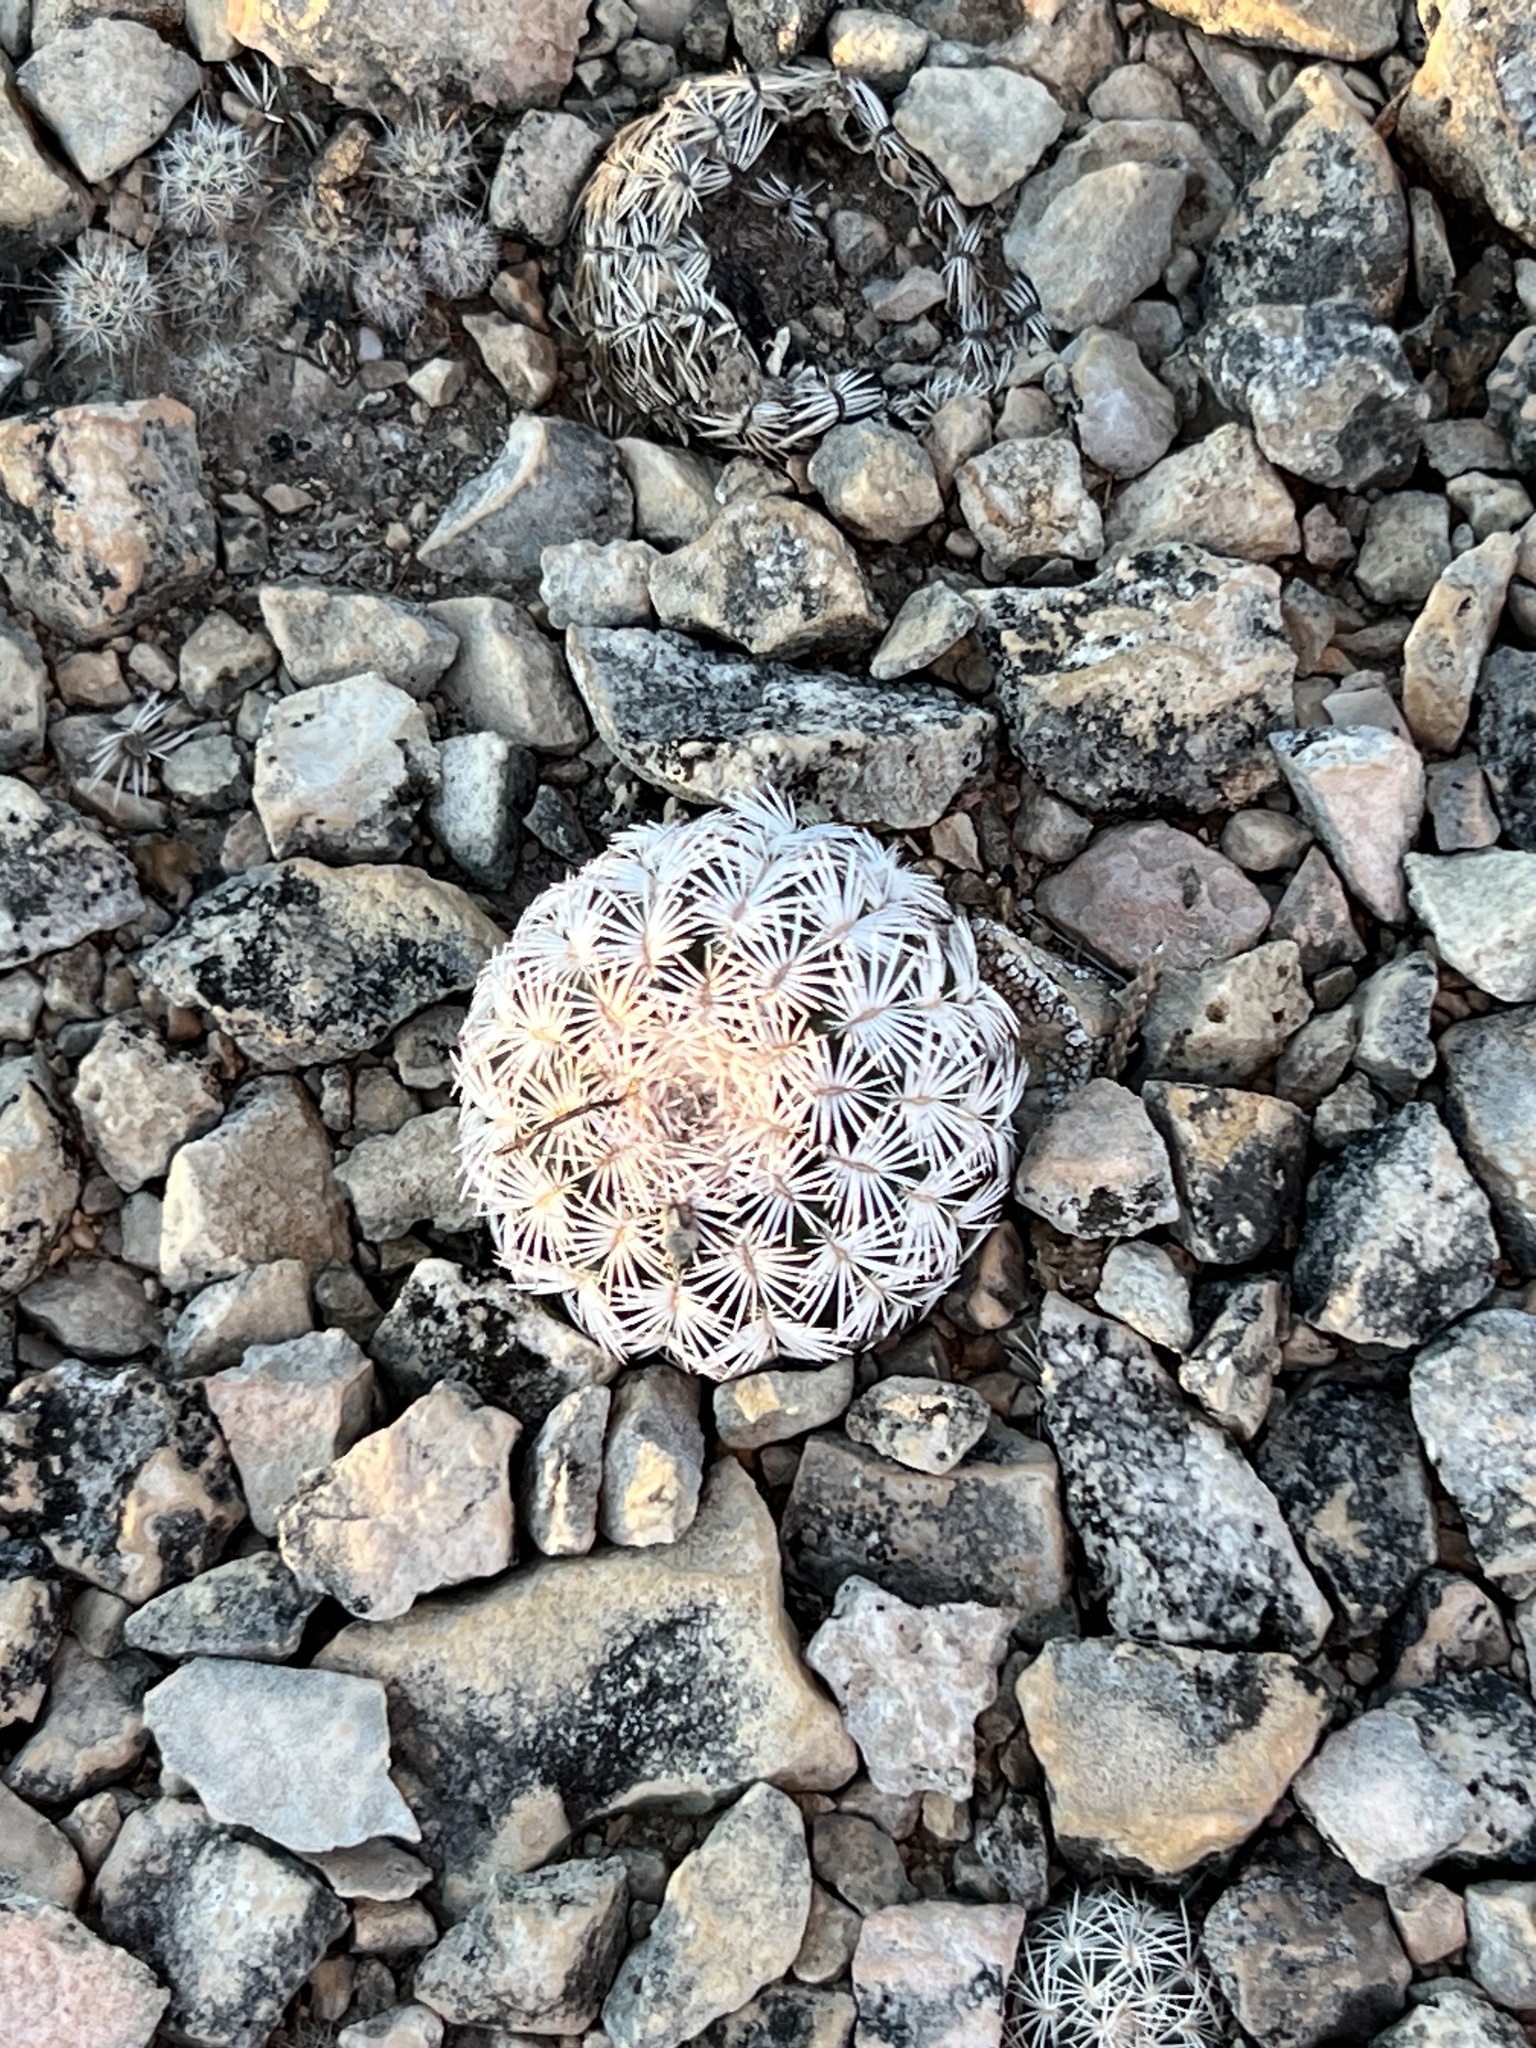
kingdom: Plantae
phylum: Tracheophyta
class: Magnoliopsida
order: Caryophyllales
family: Cactaceae
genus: Echinocereus
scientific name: Echinocereus reichenbachii
